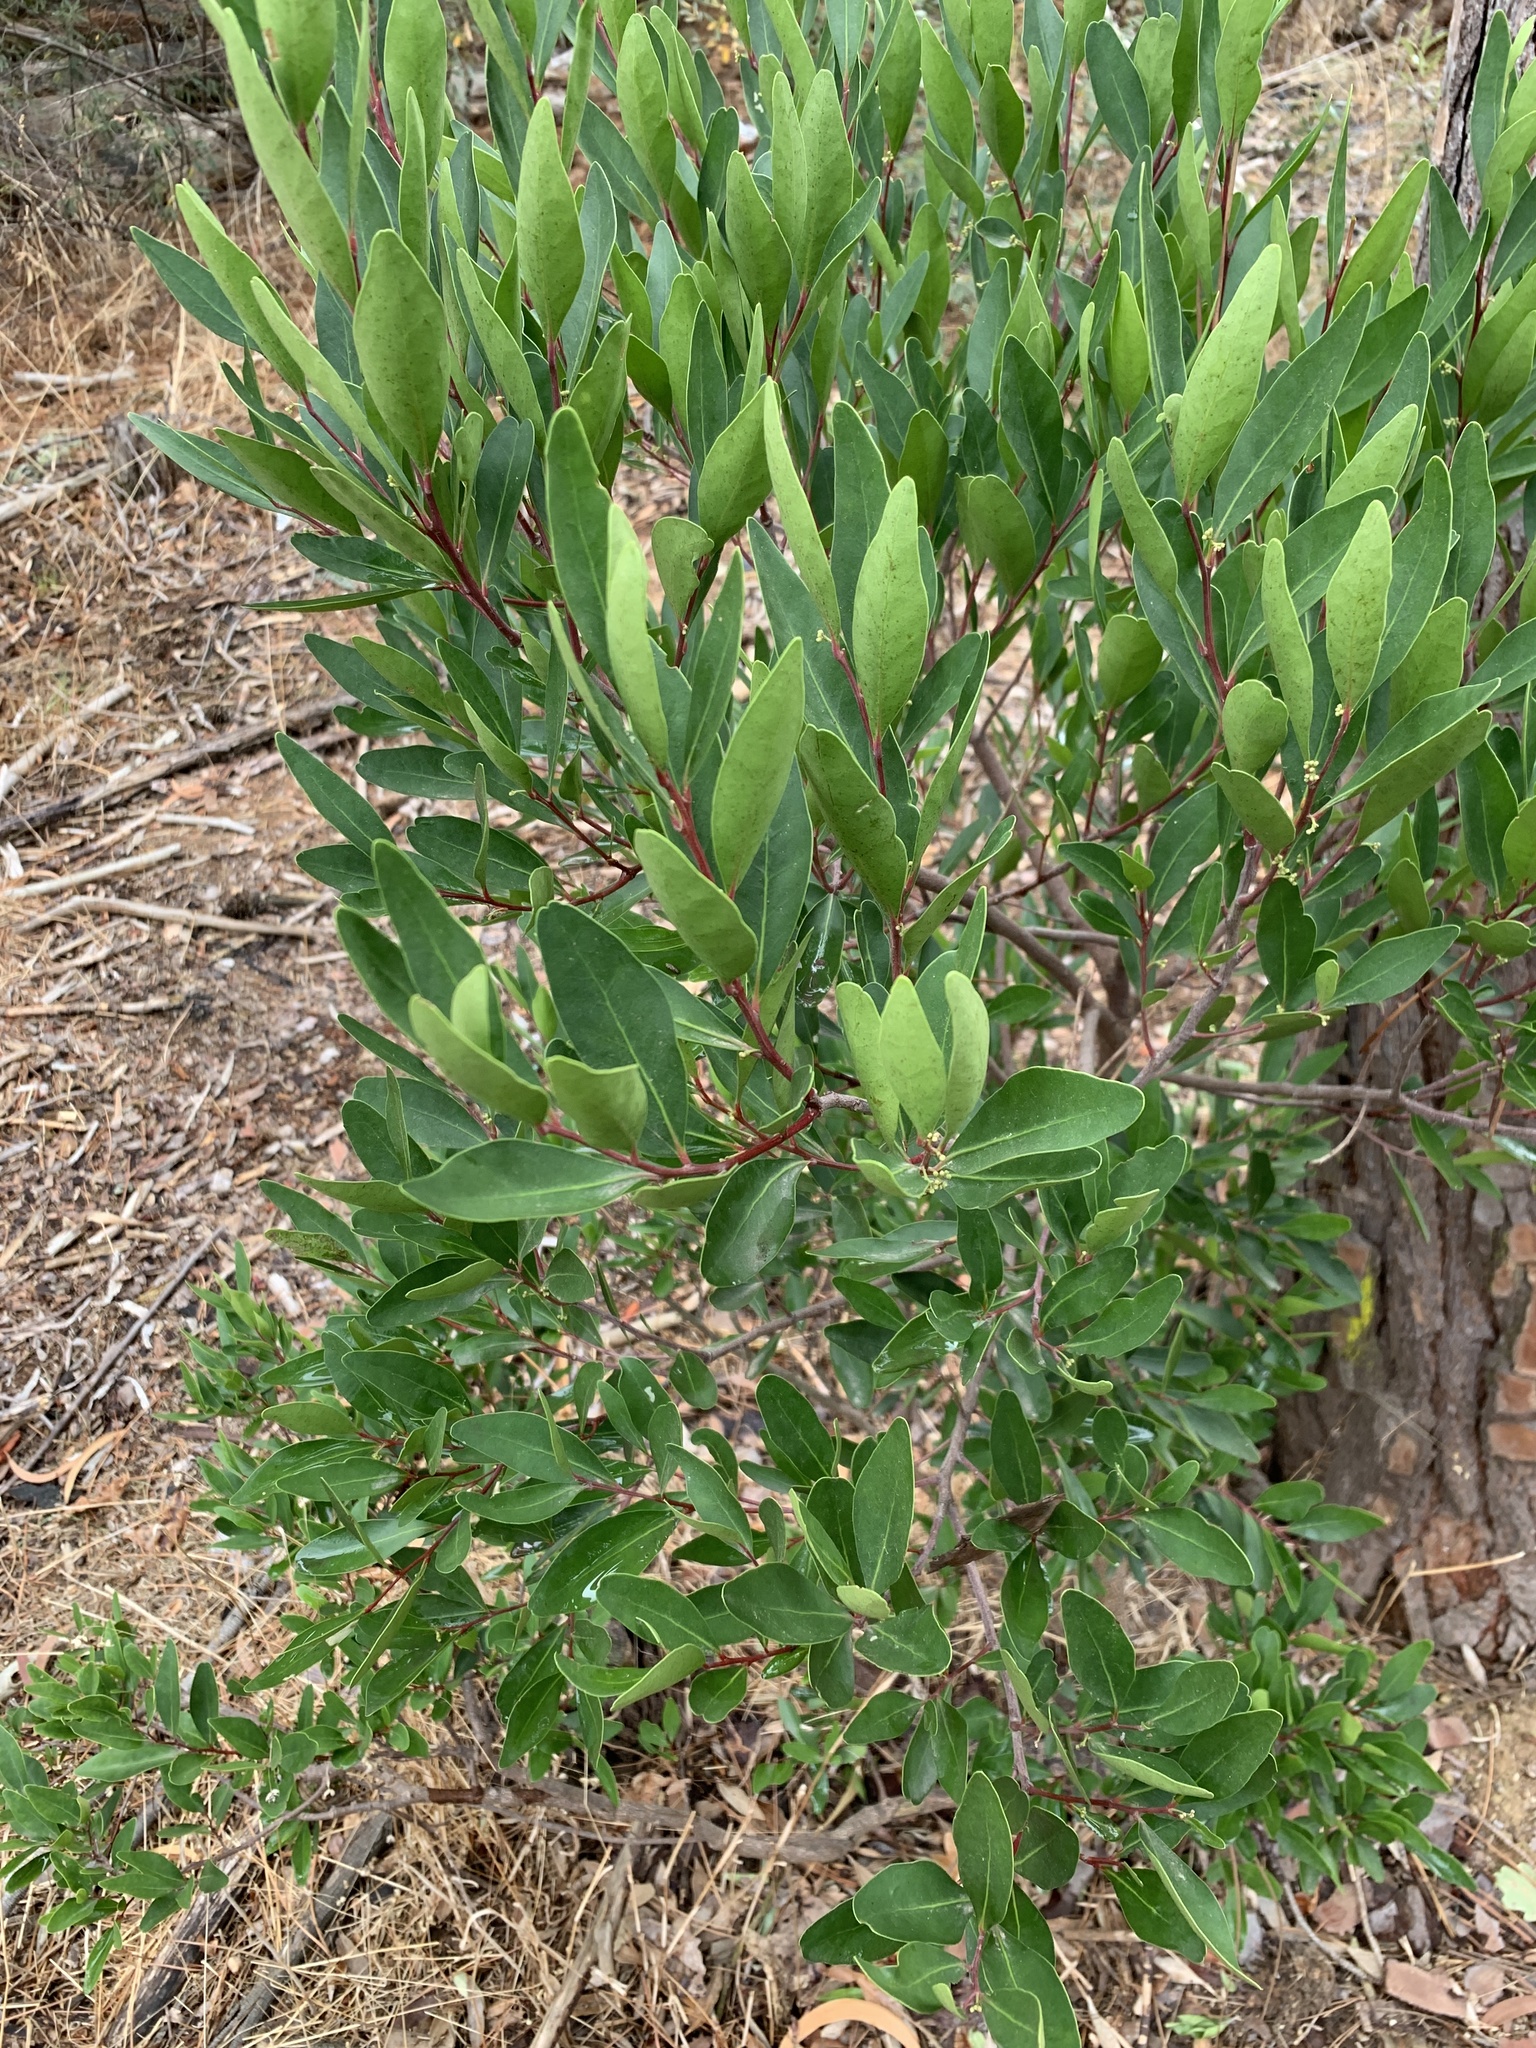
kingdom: Plantae
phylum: Tracheophyta
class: Magnoliopsida
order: Celastrales
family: Celastraceae
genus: Gymnosporia
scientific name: Gymnosporia laurina
